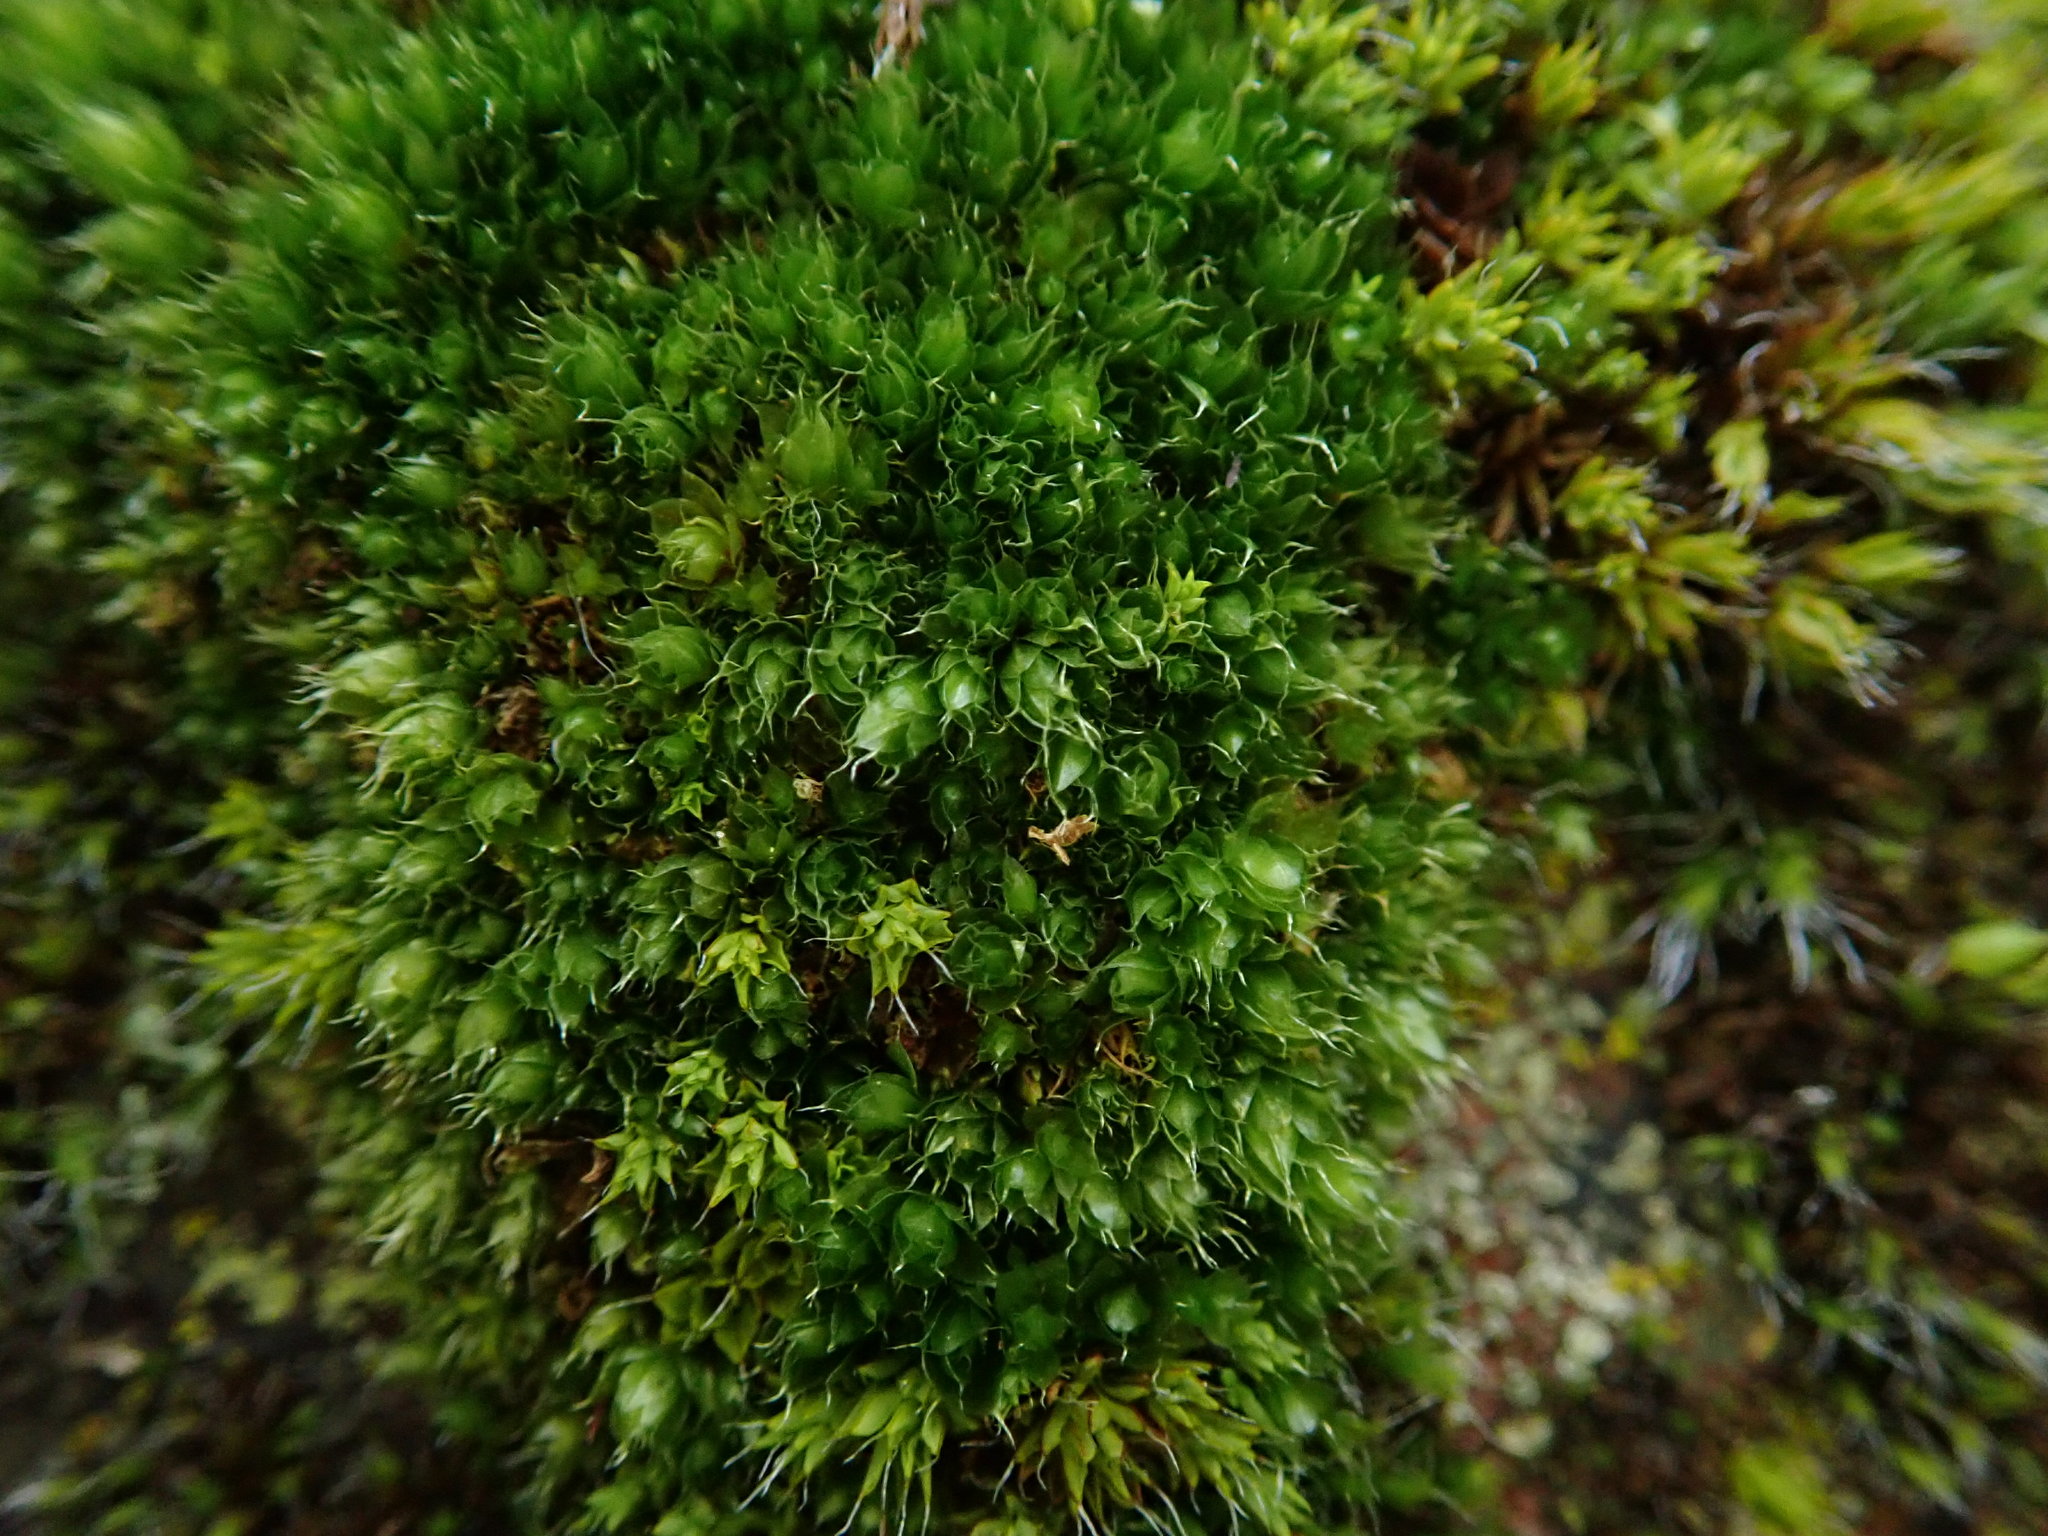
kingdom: Plantae
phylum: Bryophyta
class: Bryopsida
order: Bryales
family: Bryaceae
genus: Rosulabryum
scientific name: Rosulabryum capillare
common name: Capillary thread-moss
